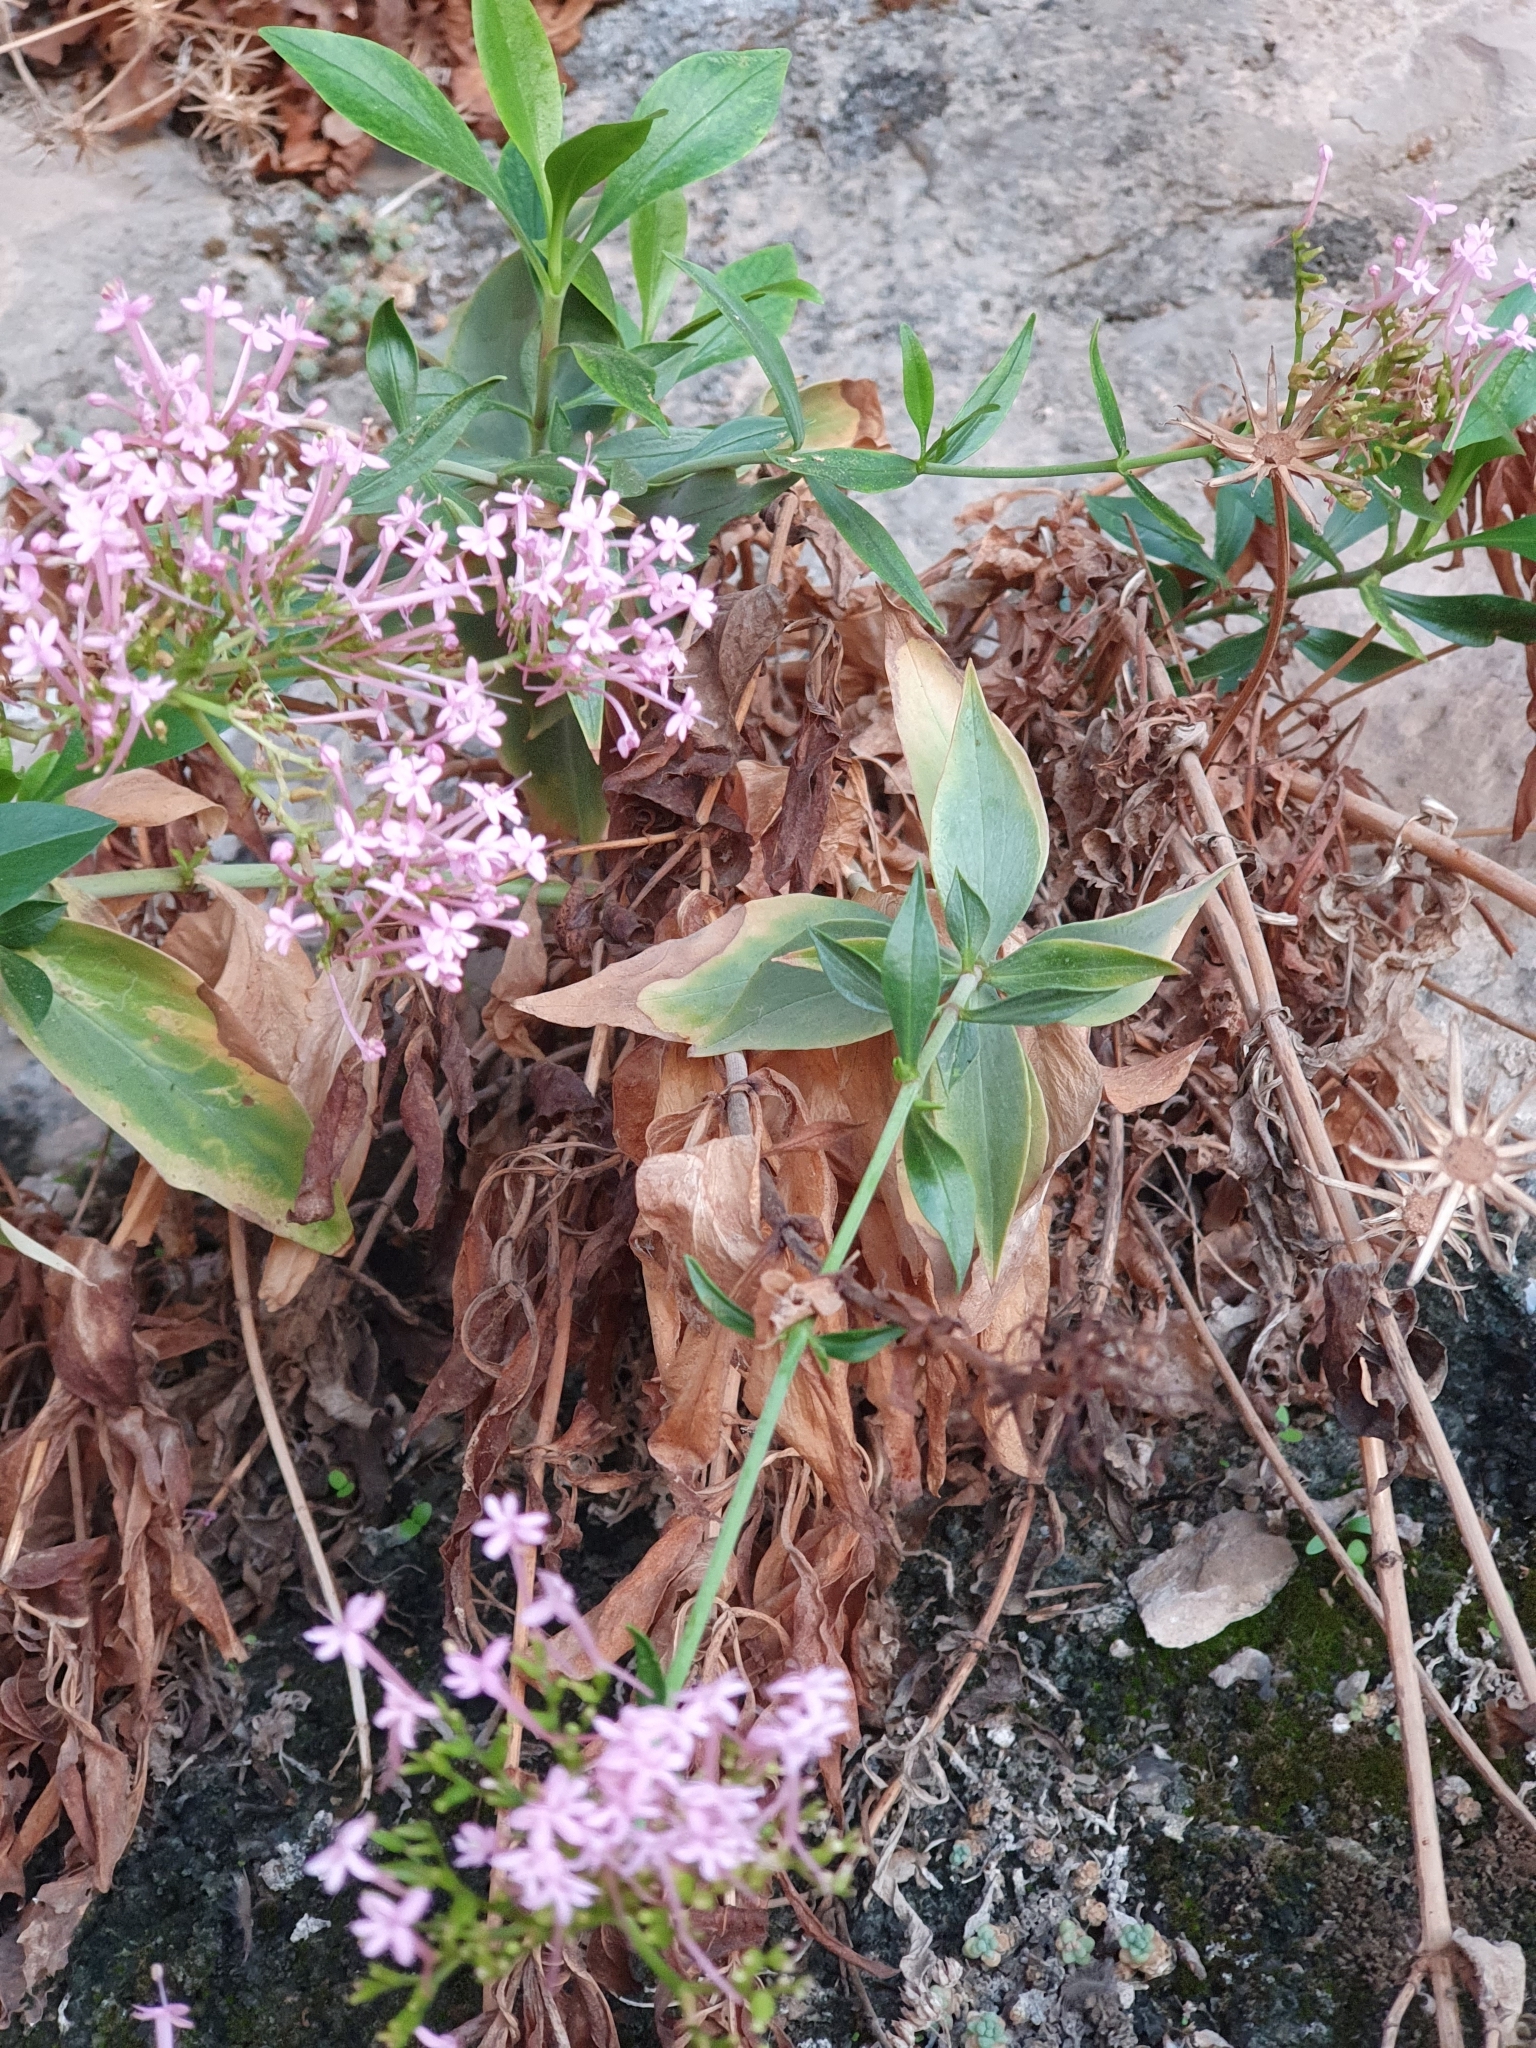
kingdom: Plantae
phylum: Tracheophyta
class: Magnoliopsida
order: Dipsacales
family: Caprifoliaceae
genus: Centranthus
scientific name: Centranthus ruber
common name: Red valerian
